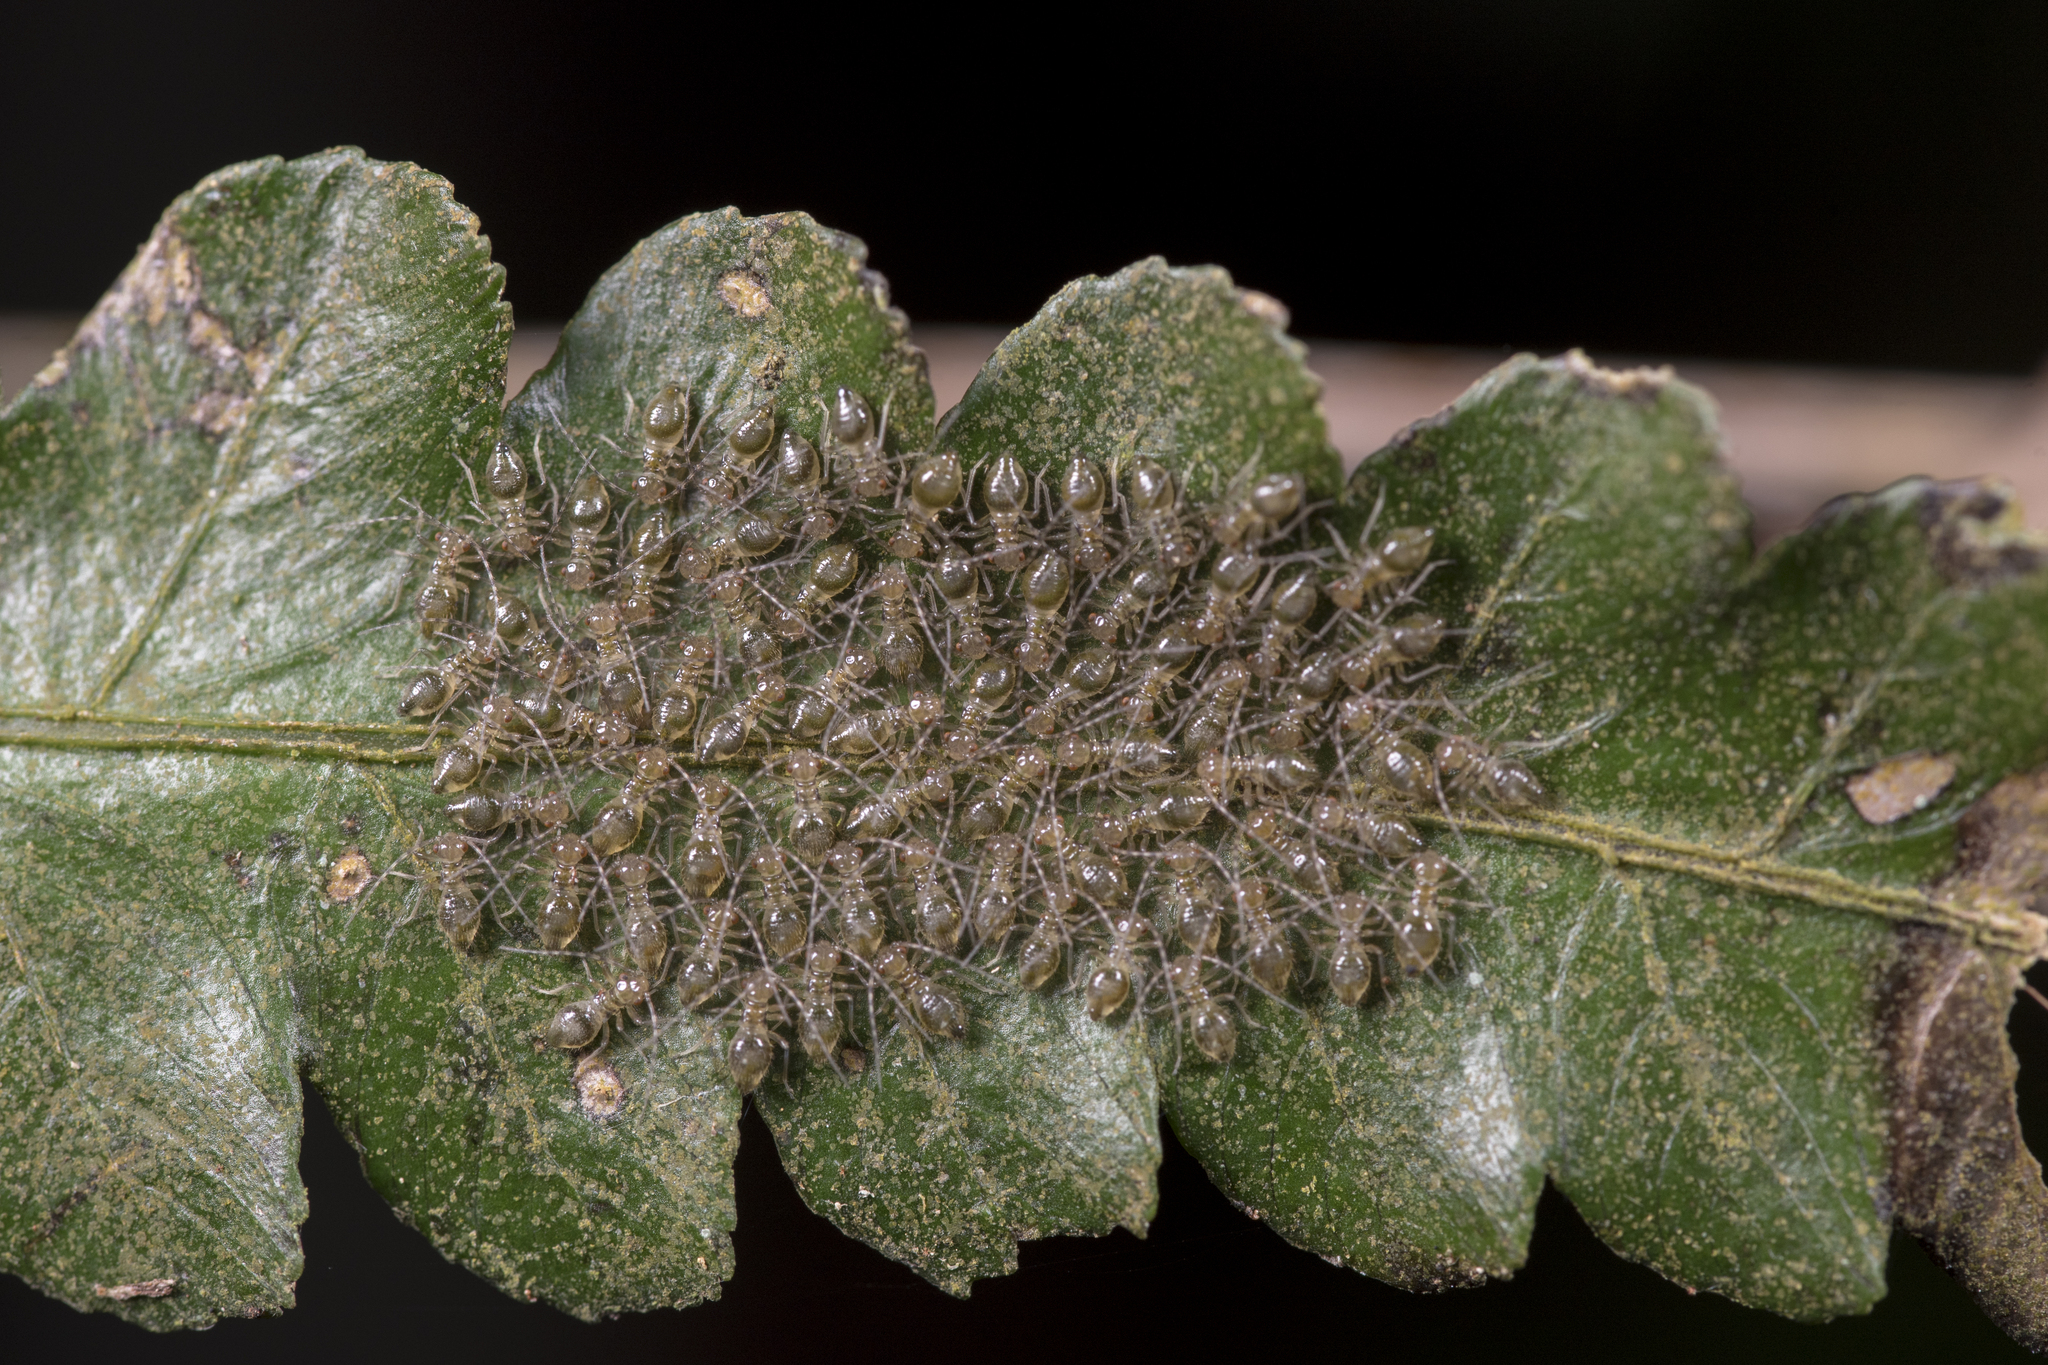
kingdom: Animalia
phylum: Arthropoda
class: Insecta
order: Psocodea
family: Amphipsocidae
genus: Taeniostigma
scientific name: Taeniostigma ingens
